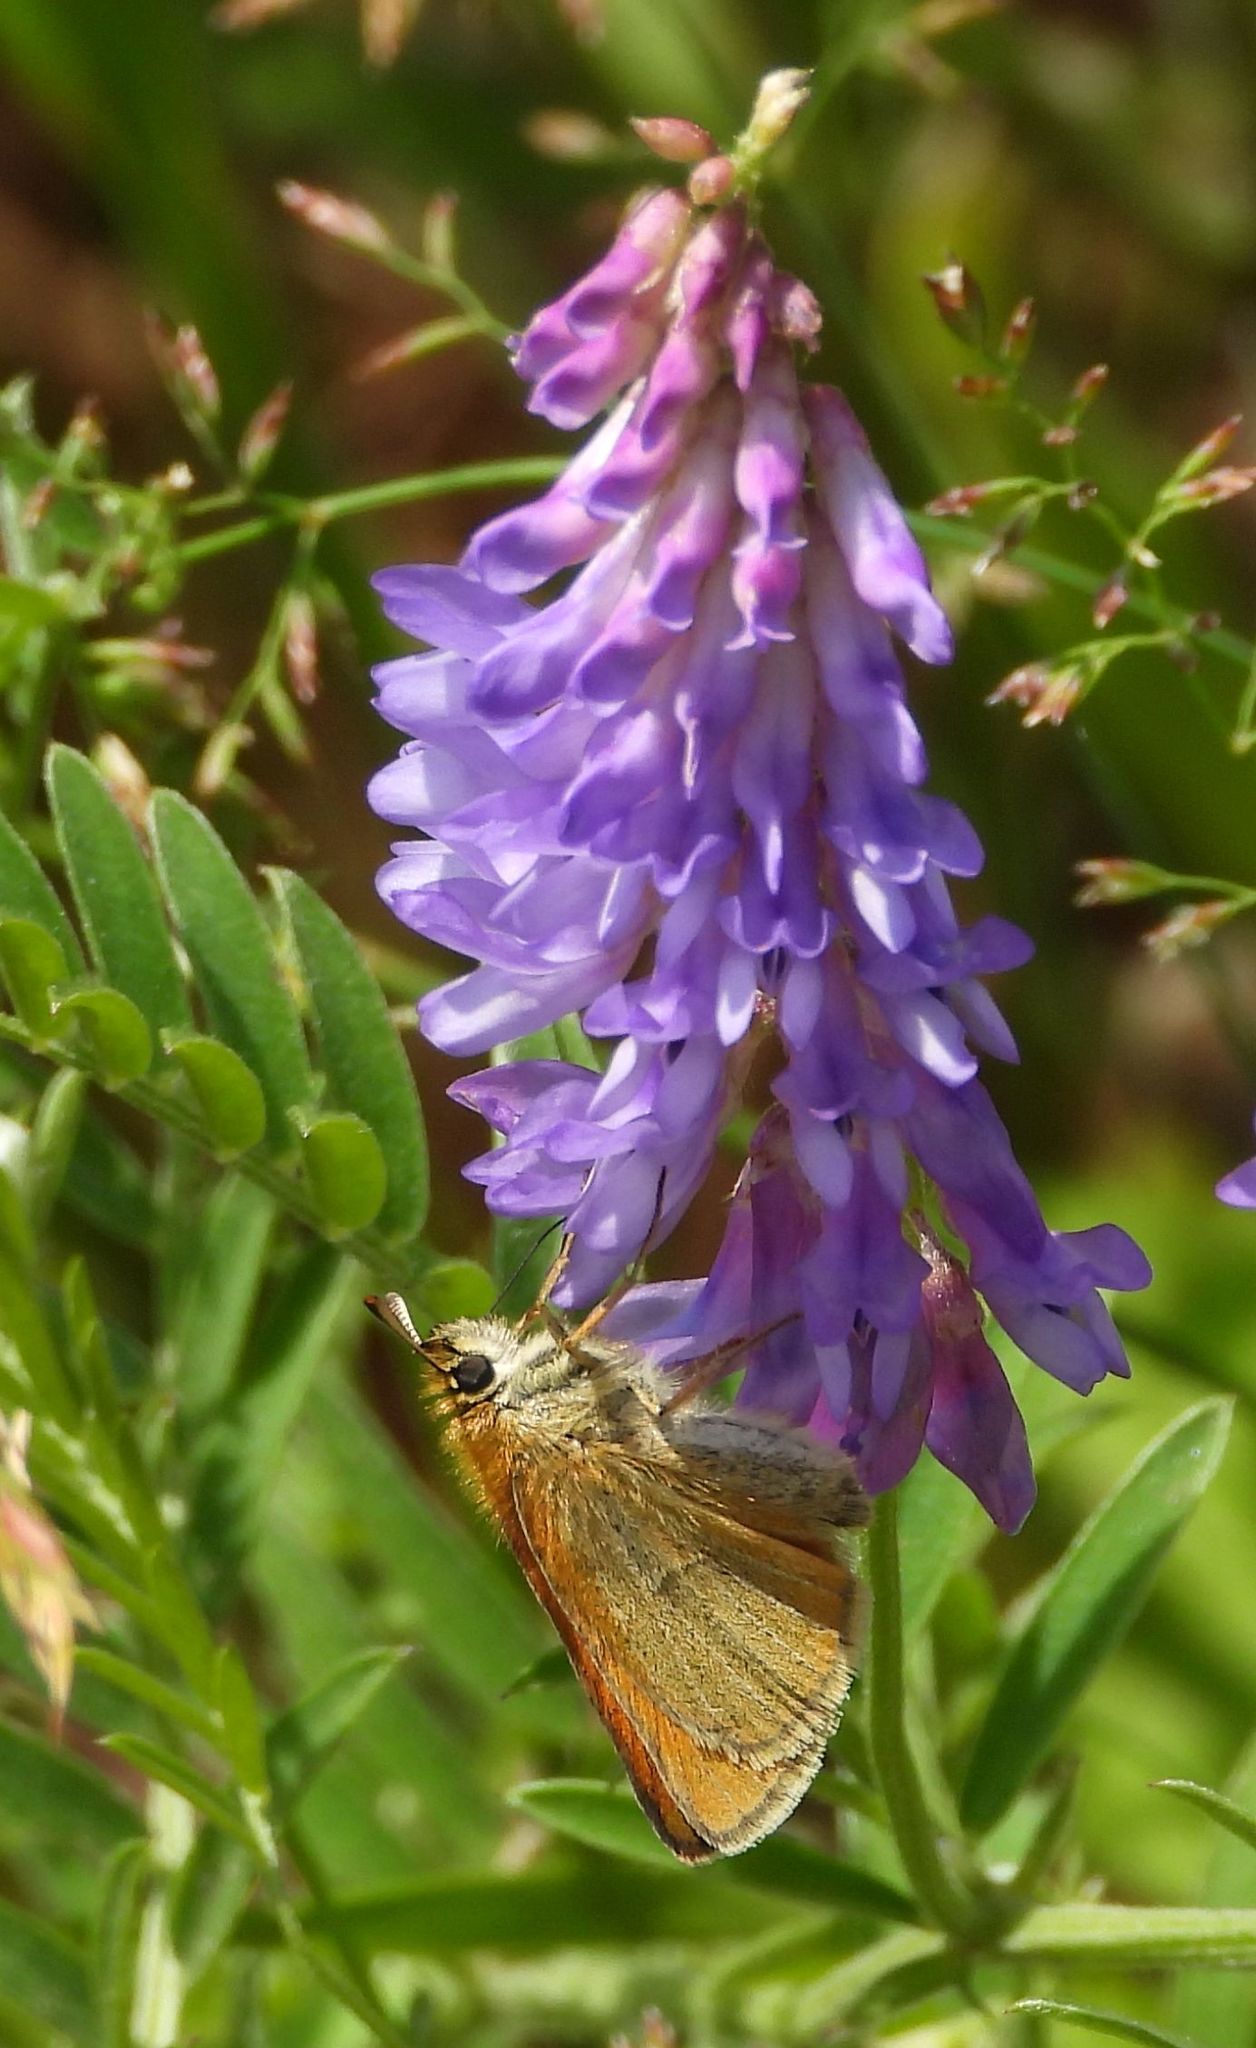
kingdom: Animalia
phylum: Arthropoda
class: Insecta
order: Lepidoptera
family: Hesperiidae
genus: Thymelicus
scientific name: Thymelicus lineola
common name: Essex skipper
